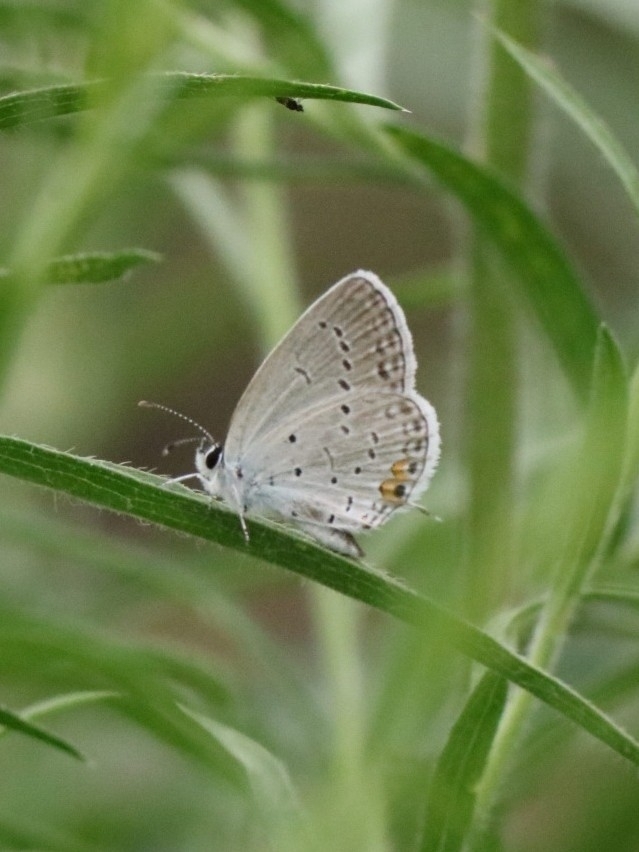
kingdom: Animalia
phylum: Arthropoda
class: Insecta
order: Lepidoptera
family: Lycaenidae
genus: Elkalyce
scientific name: Elkalyce comyntas
